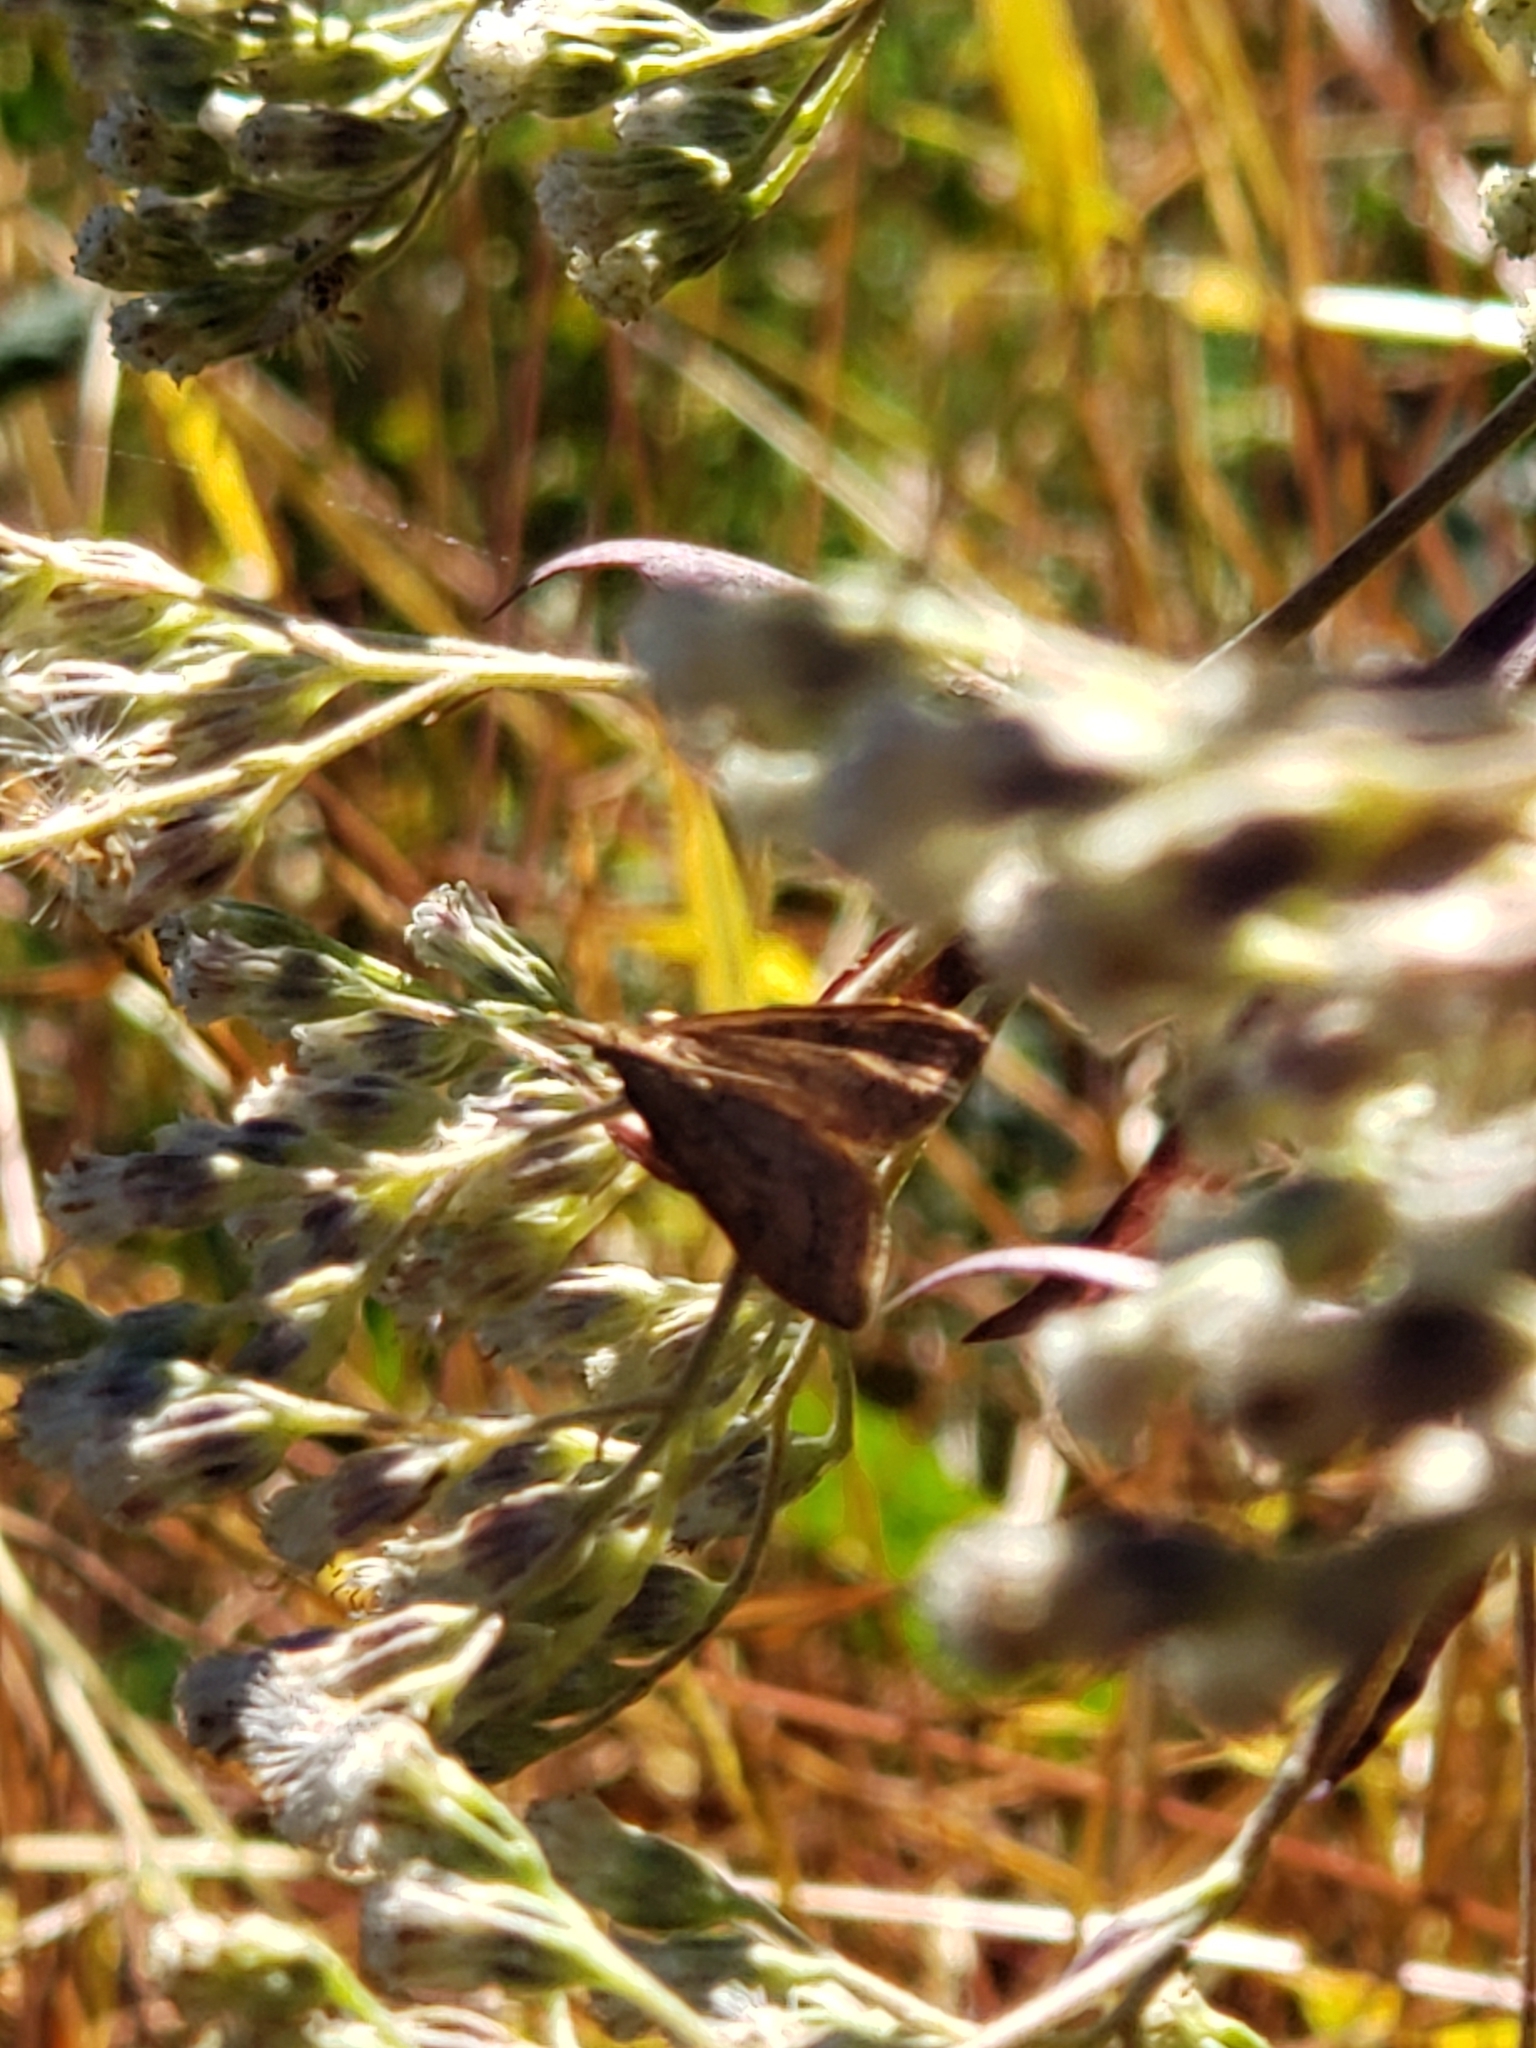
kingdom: Animalia
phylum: Arthropoda
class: Insecta
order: Lepidoptera
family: Crambidae
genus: Udea
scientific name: Udea rubigalis
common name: Celery leaftier moth
